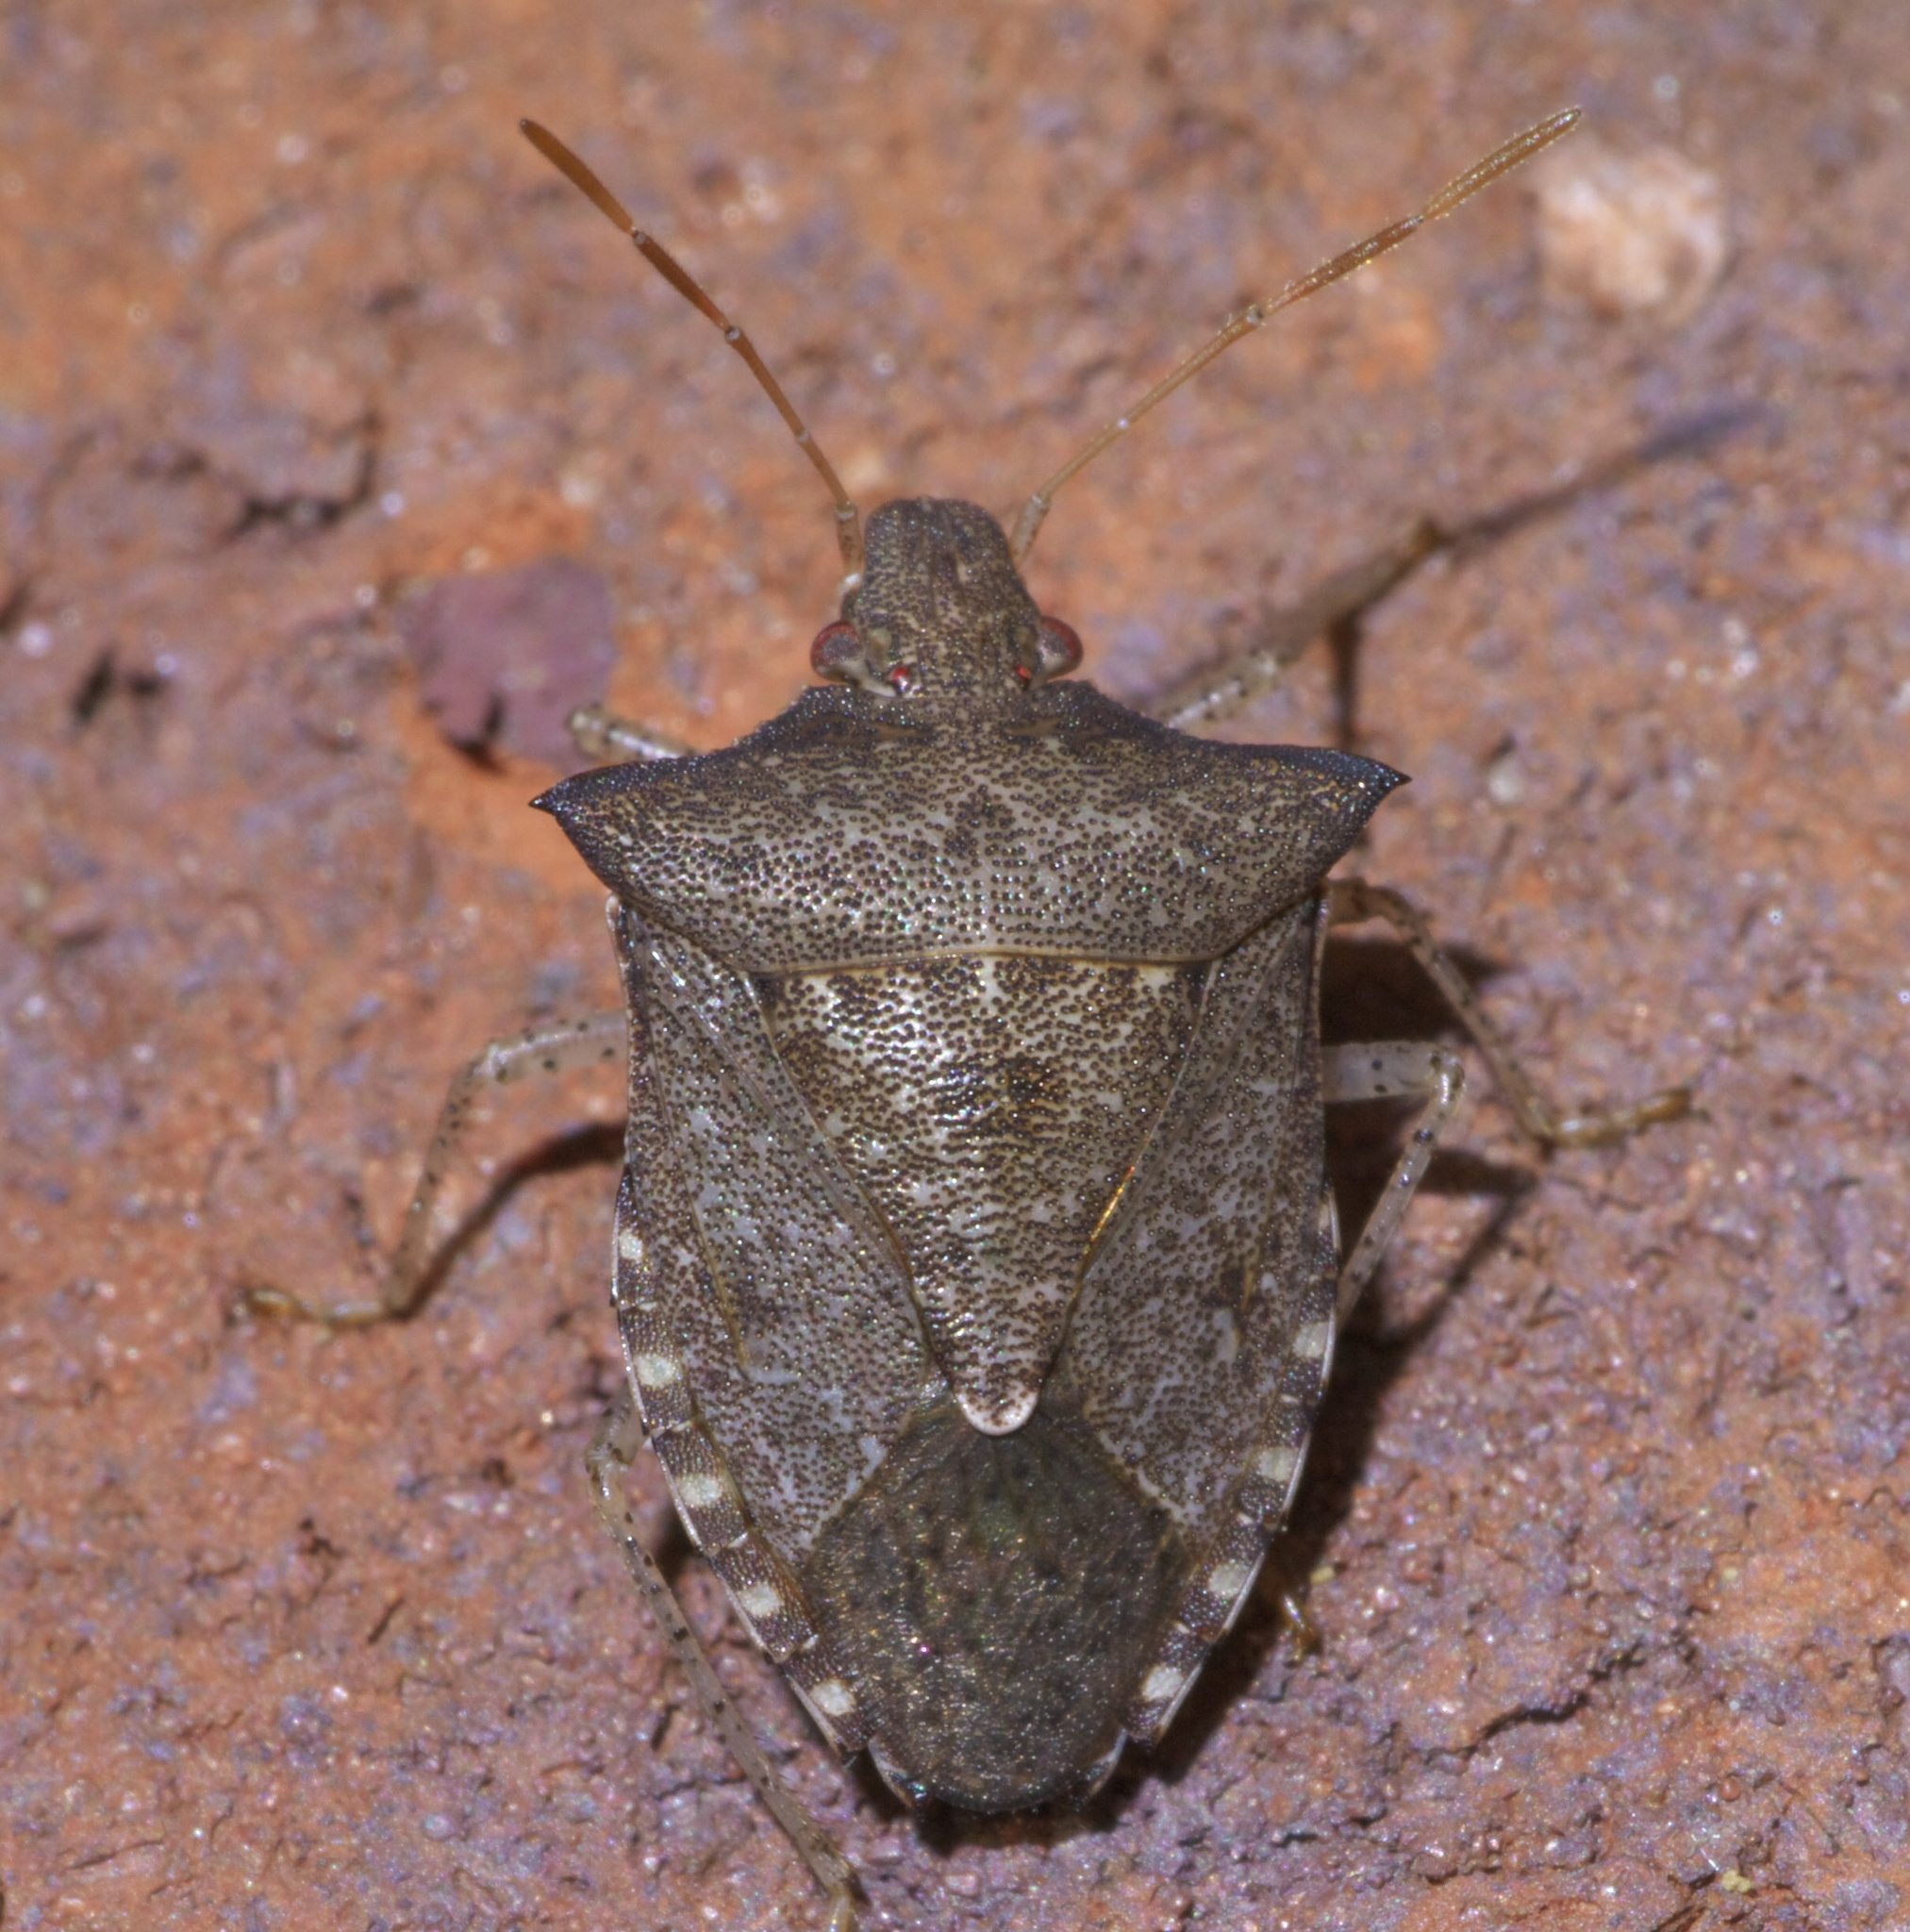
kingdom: Animalia
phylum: Arthropoda
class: Insecta
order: Hemiptera
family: Pentatomidae
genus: Euschistus
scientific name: Euschistus tristigmus
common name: Dusky stink bug
